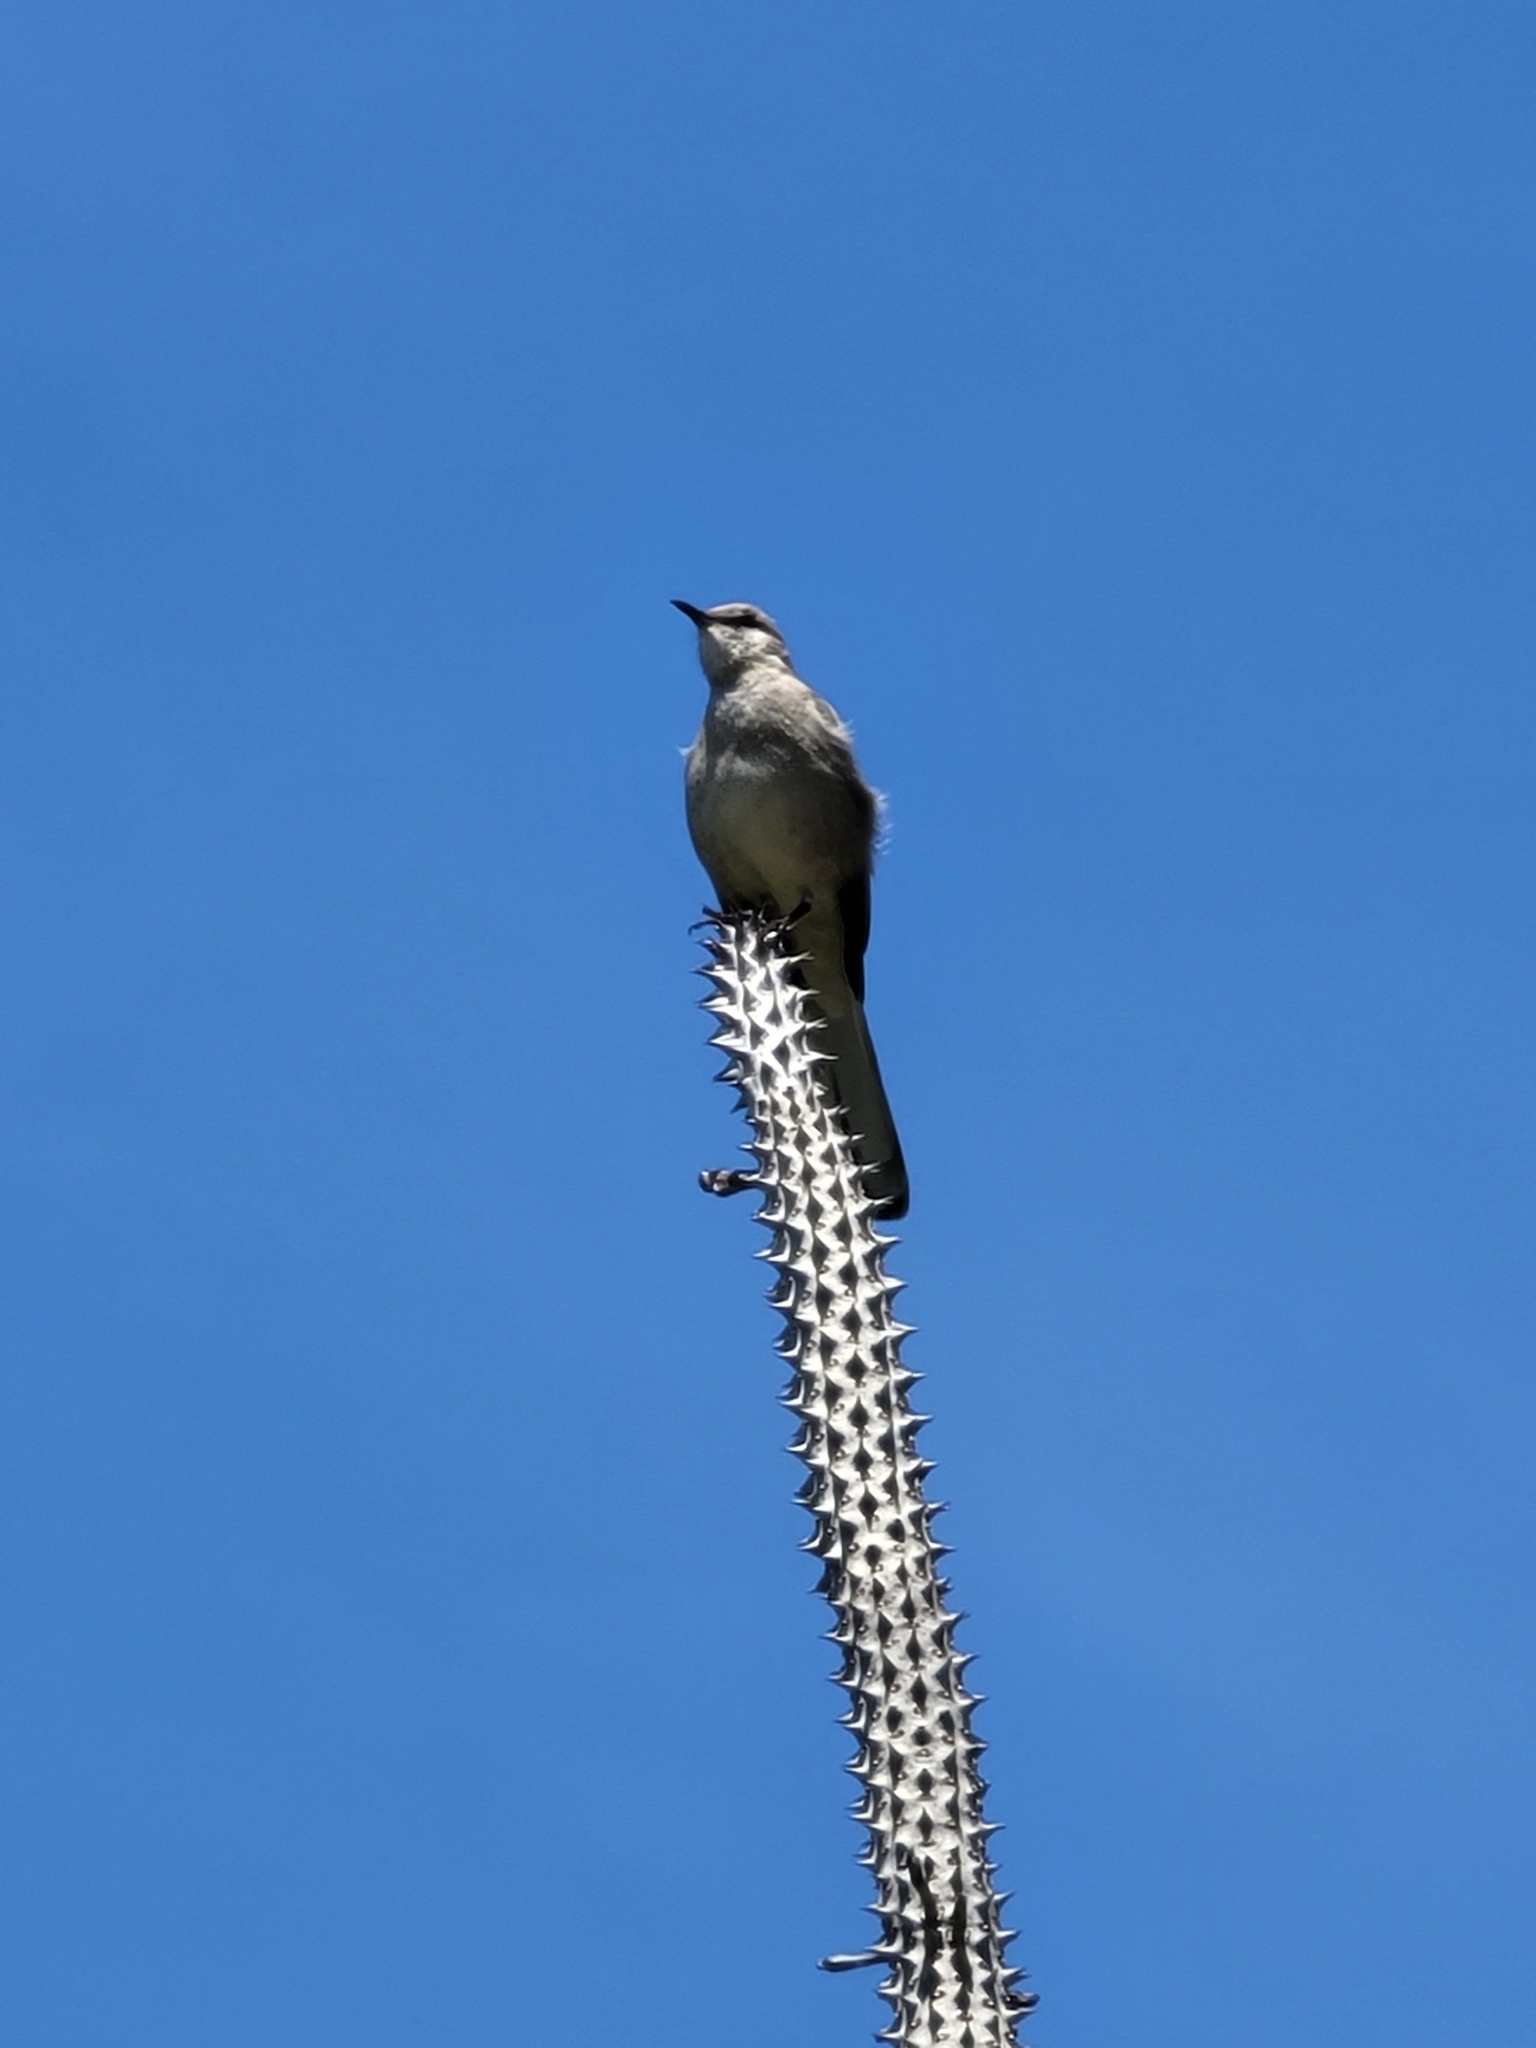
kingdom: Animalia
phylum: Chordata
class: Aves
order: Passeriformes
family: Mimidae
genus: Mimus
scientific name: Mimus polyglottos
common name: Northern mockingbird
